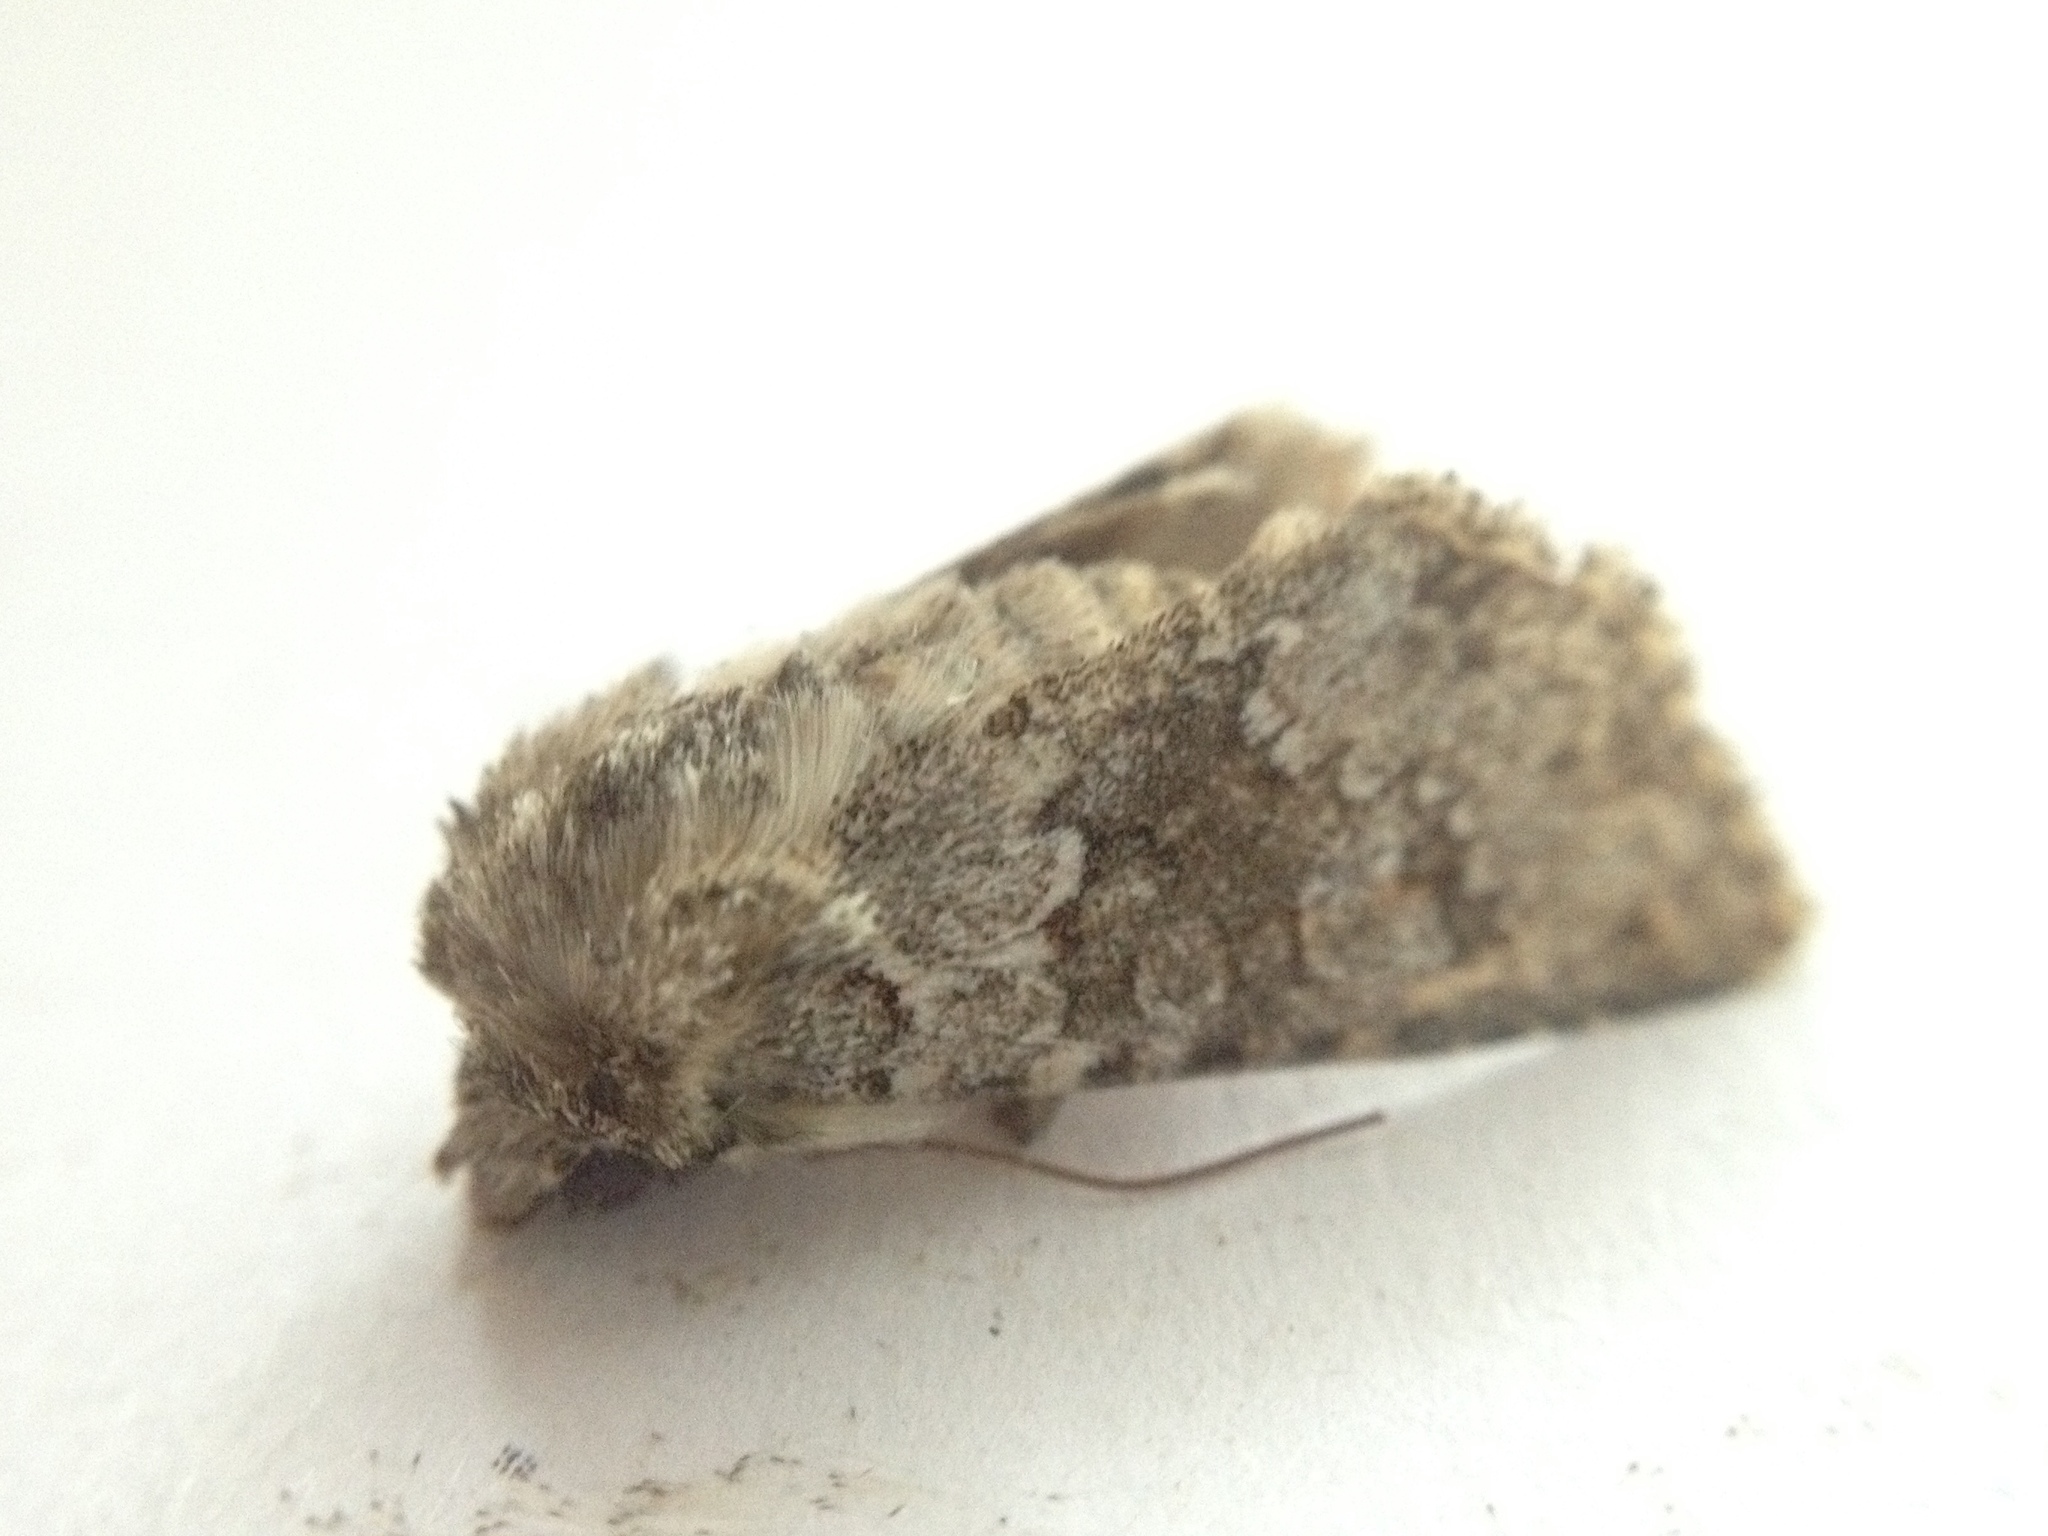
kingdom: Animalia
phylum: Arthropoda
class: Insecta
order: Lepidoptera
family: Noctuidae
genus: Hecatera
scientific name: Hecatera dysodea
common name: Small ranunculus
